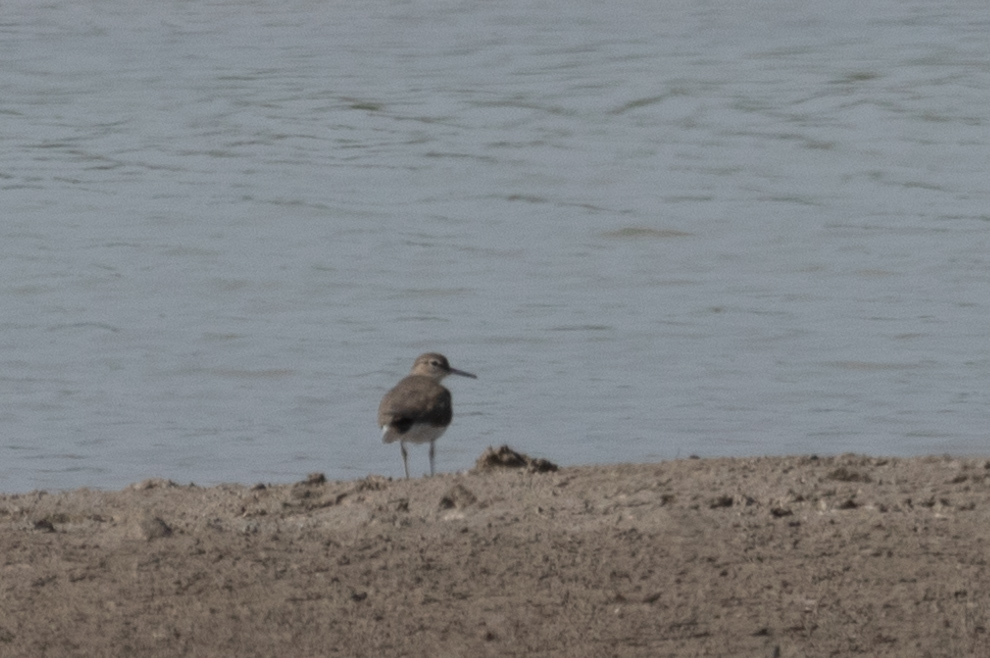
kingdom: Animalia
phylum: Chordata
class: Aves
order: Charadriiformes
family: Scolopacidae
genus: Actitis
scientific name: Actitis hypoleucos
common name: Common sandpiper
